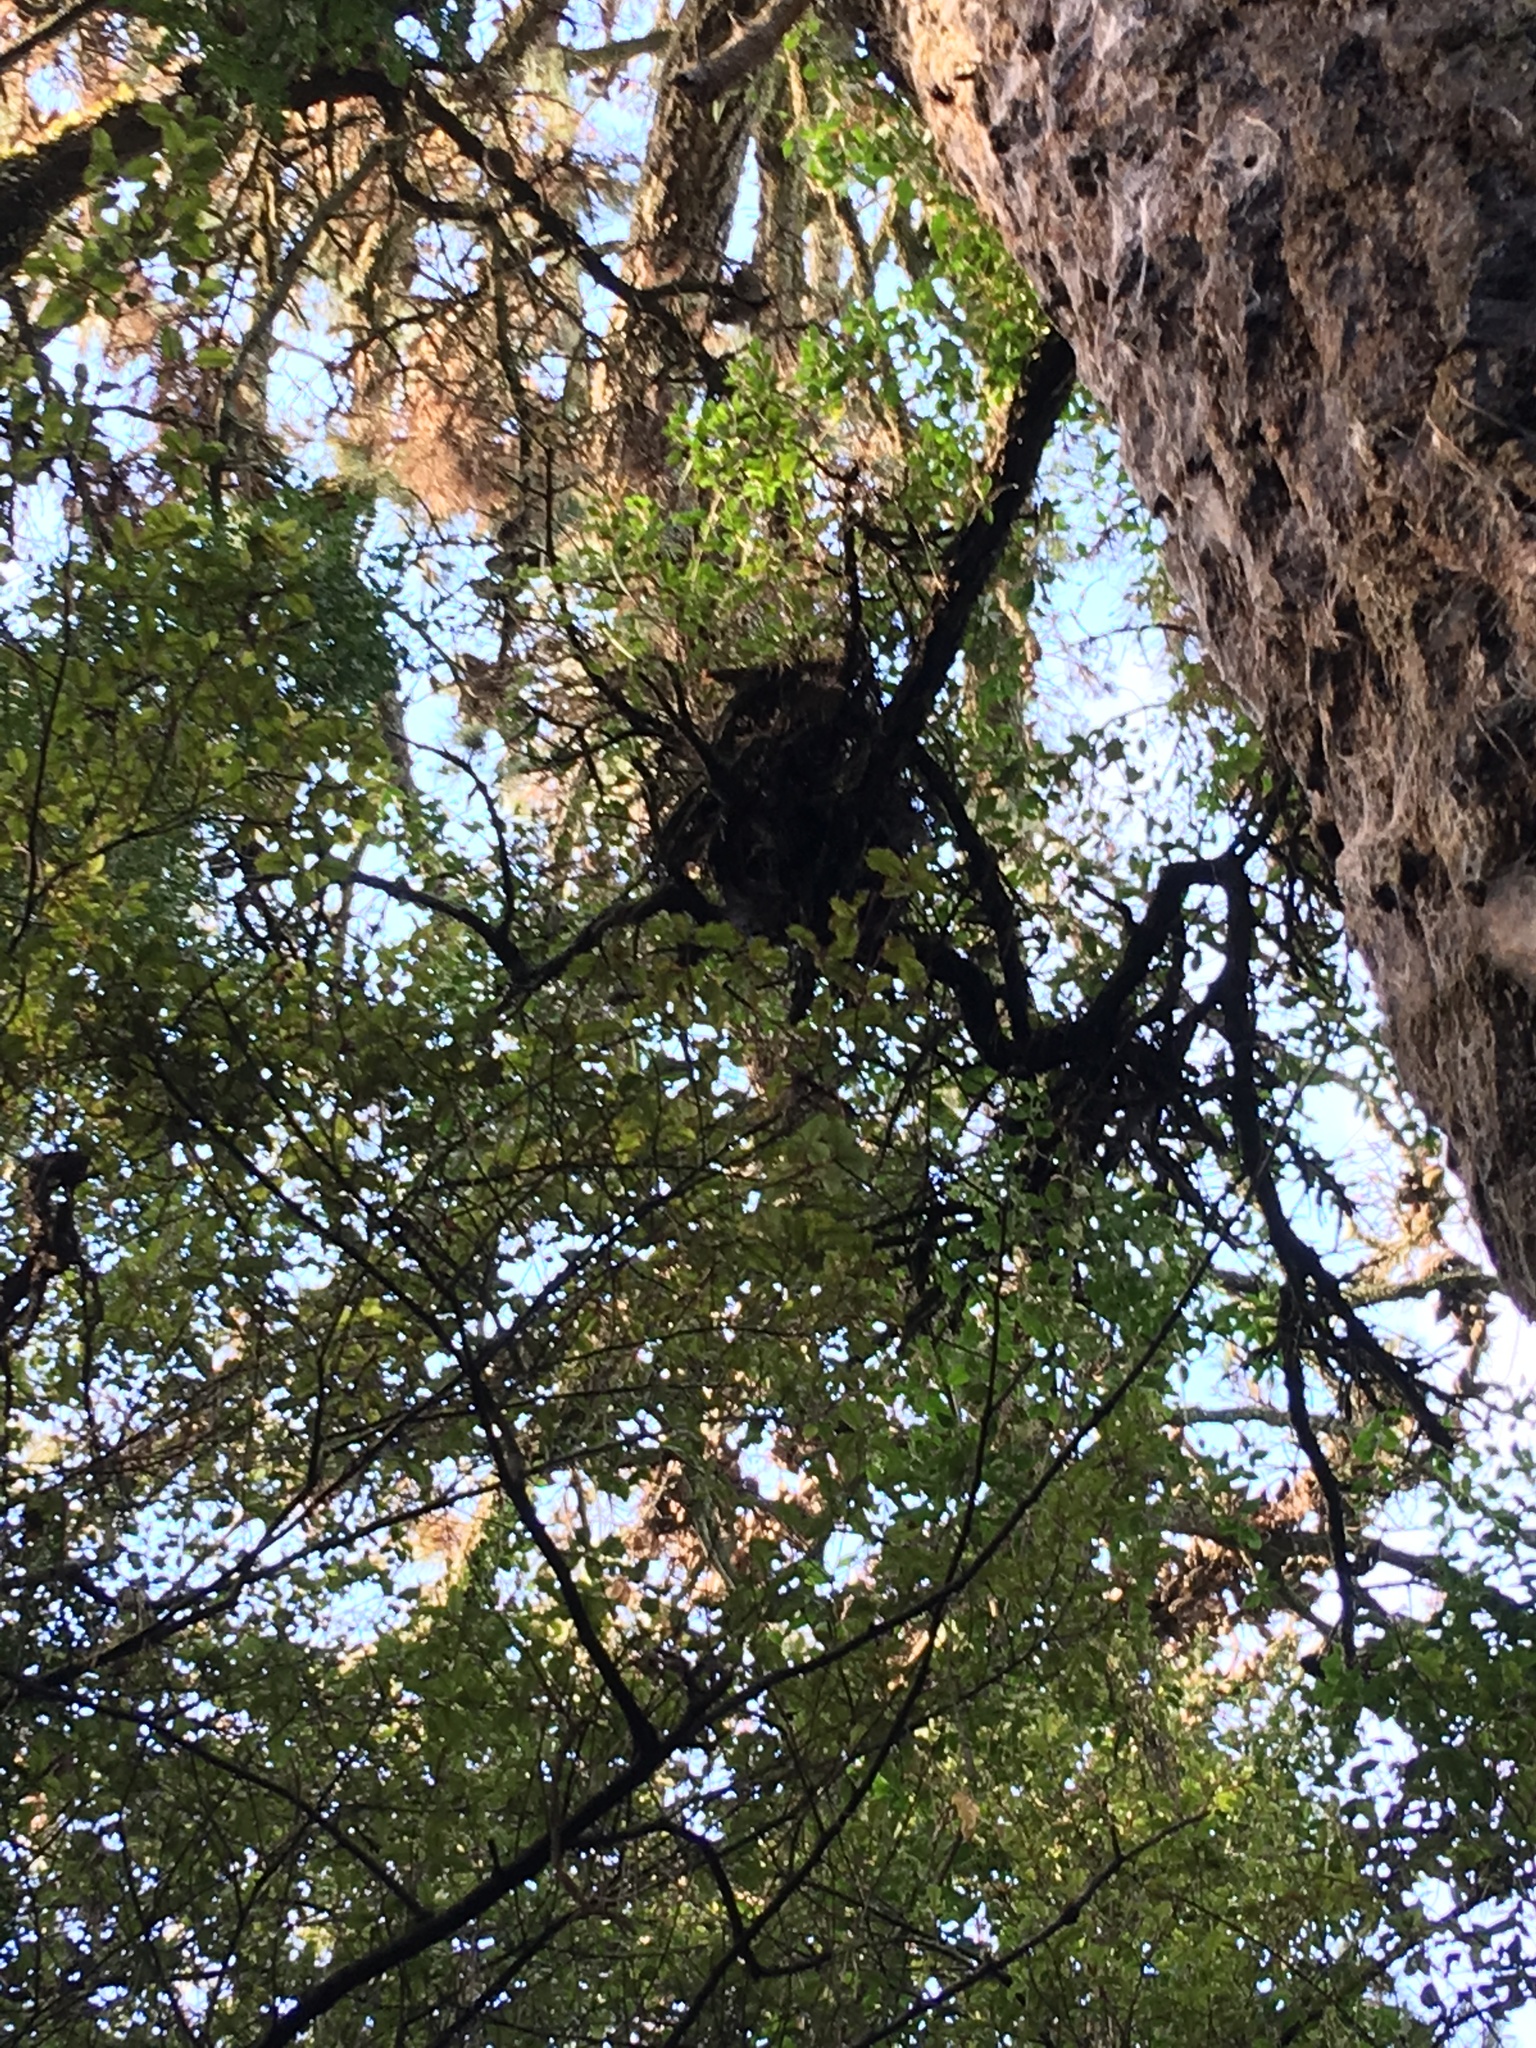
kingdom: Plantae
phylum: Tracheophyta
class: Pinopsida
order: Pinales
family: Pinaceae
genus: Pinus
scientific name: Pinus radiata
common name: Monterey pine
